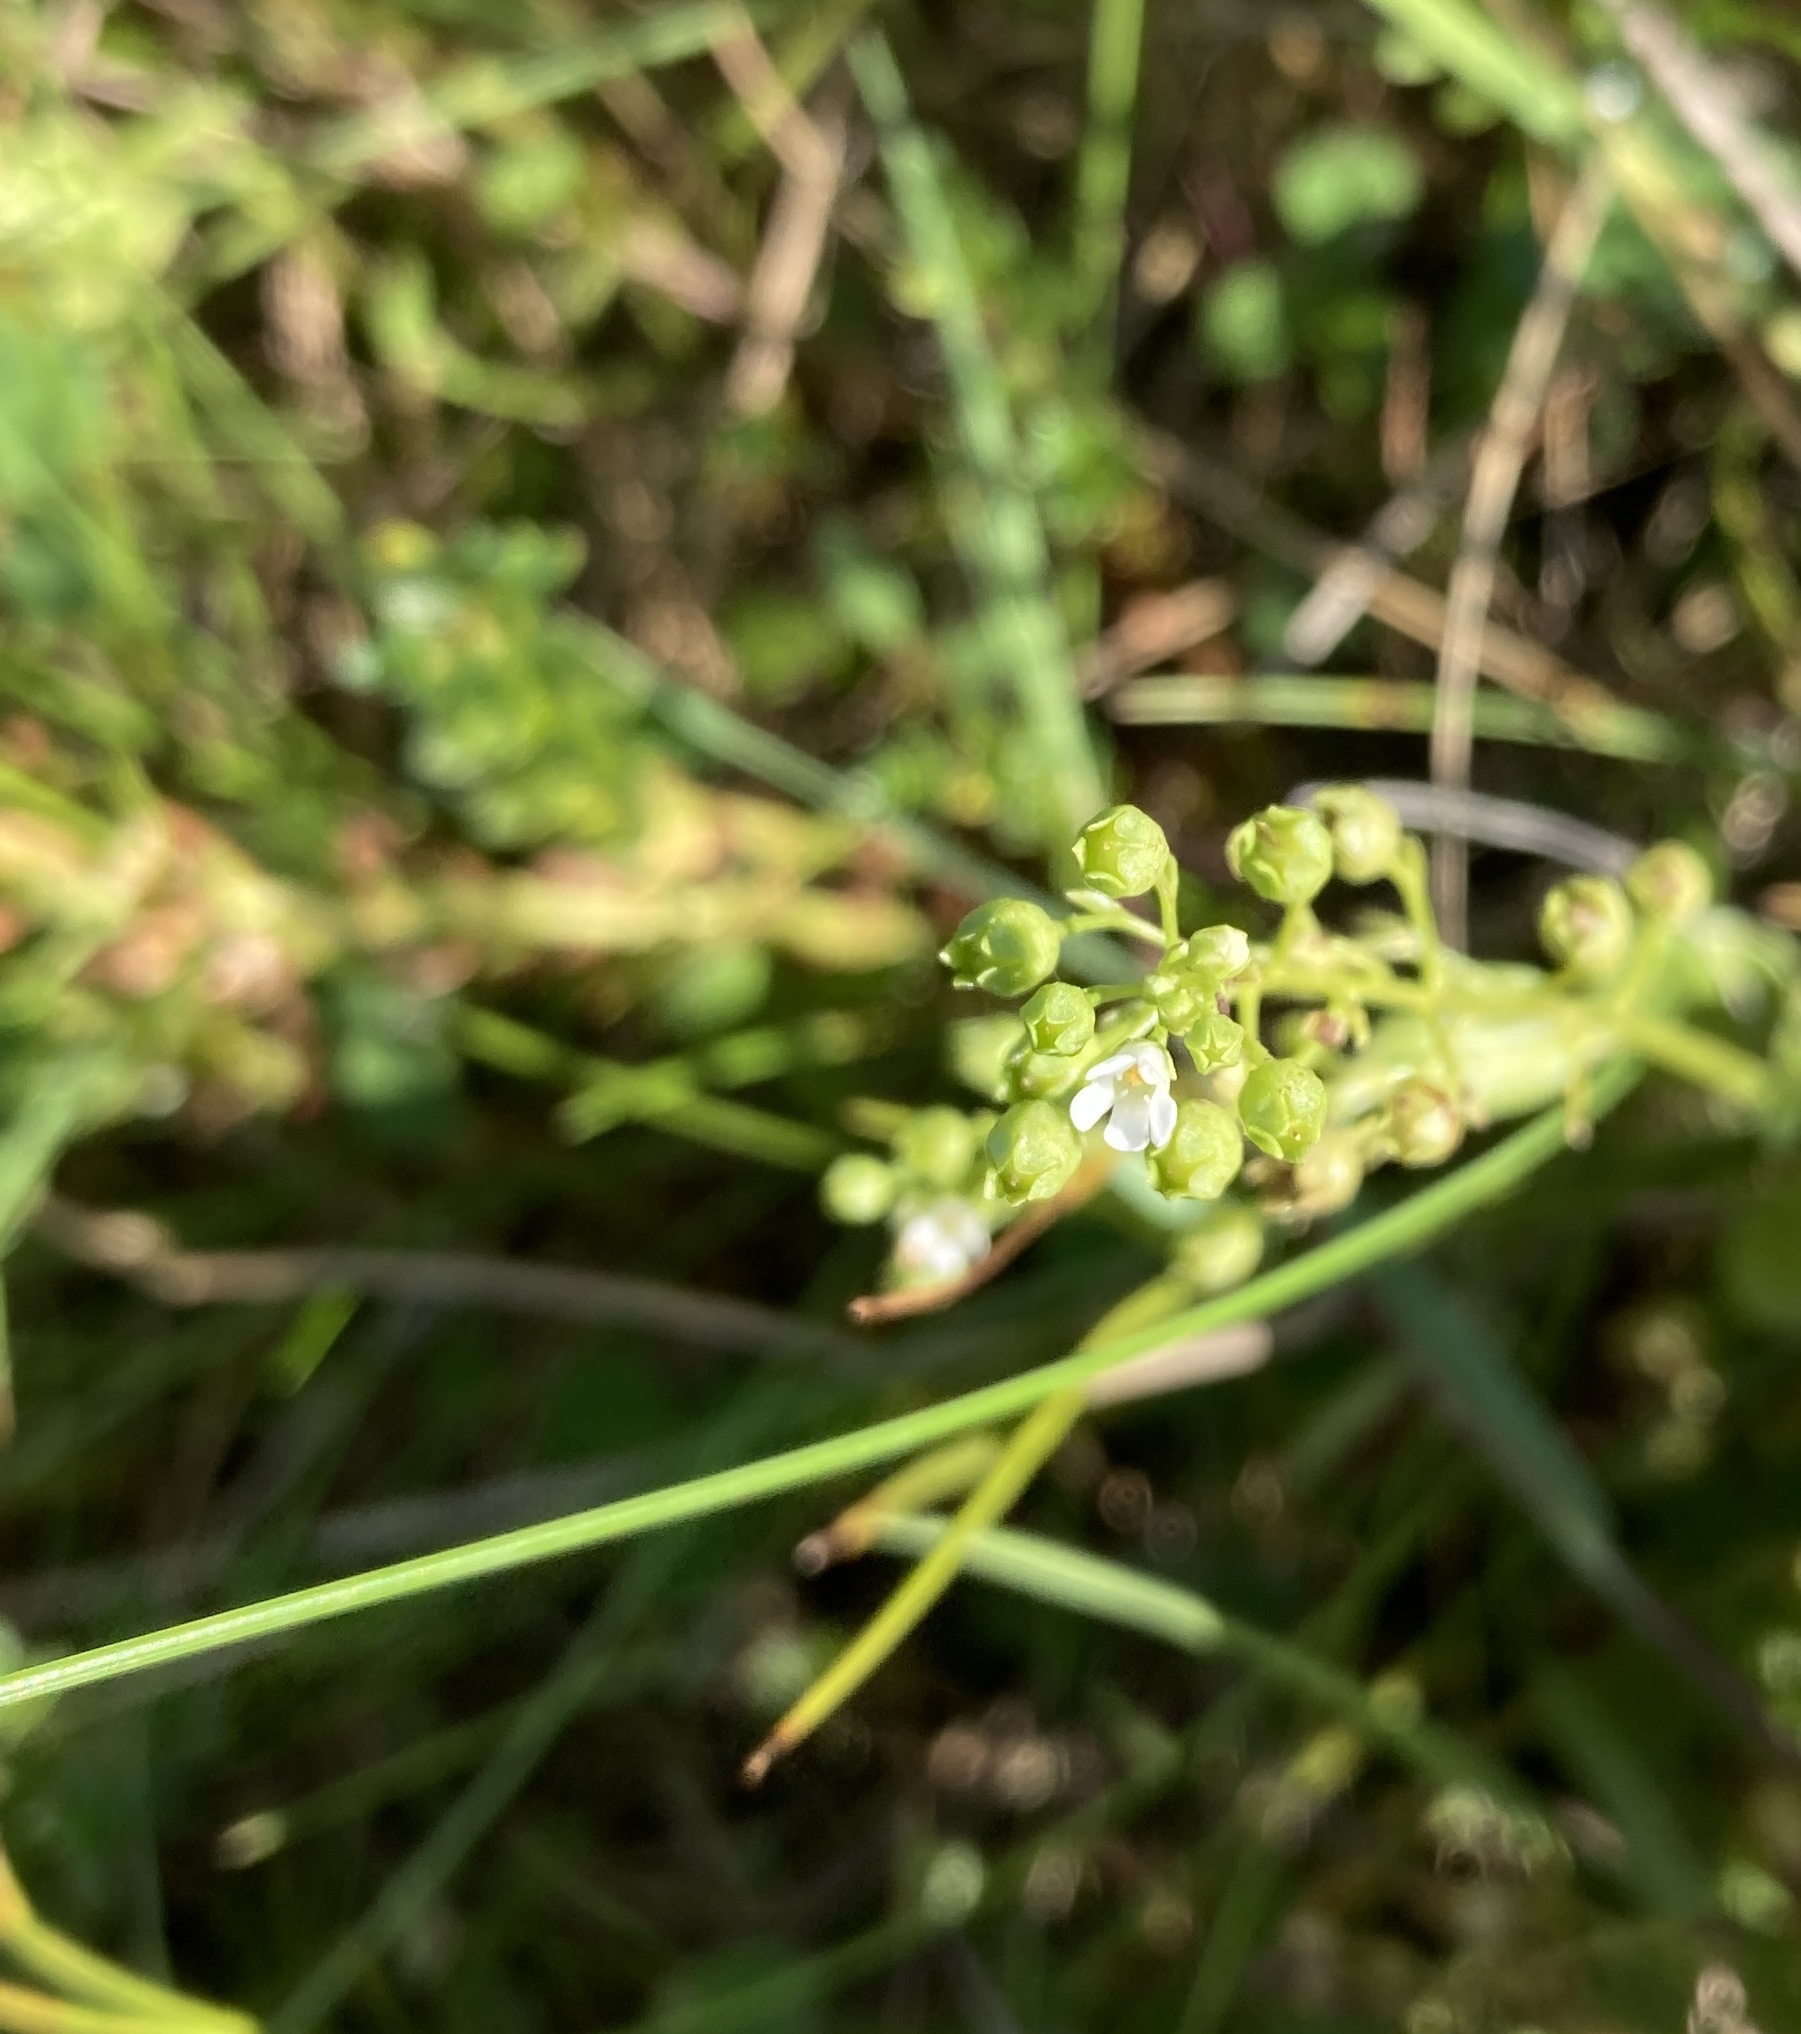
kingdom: Plantae
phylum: Tracheophyta
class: Magnoliopsida
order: Ericales
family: Primulaceae
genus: Samolus
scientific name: Samolus valerandi
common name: Brookweed
